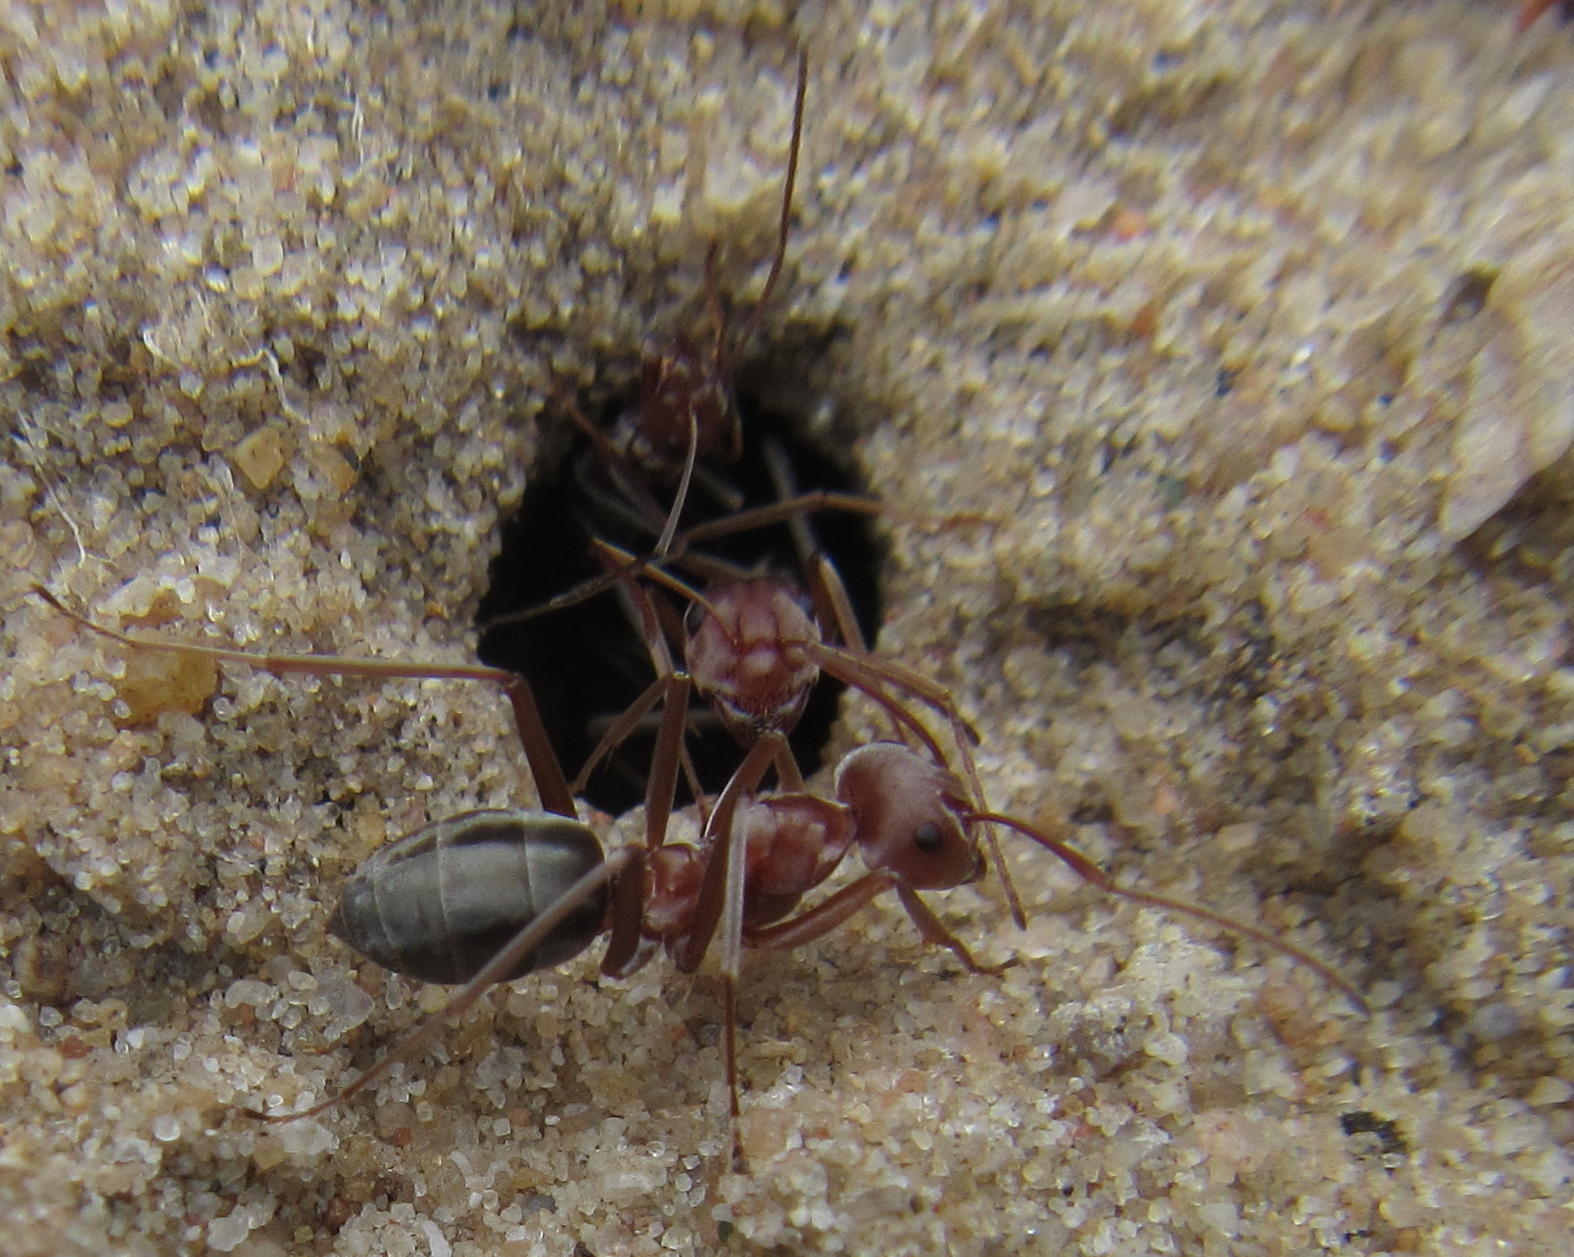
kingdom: Animalia
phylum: Arthropoda
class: Insecta
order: Hymenoptera
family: Formicidae
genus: Anoplolepis
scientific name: Anoplolepis custodiens
